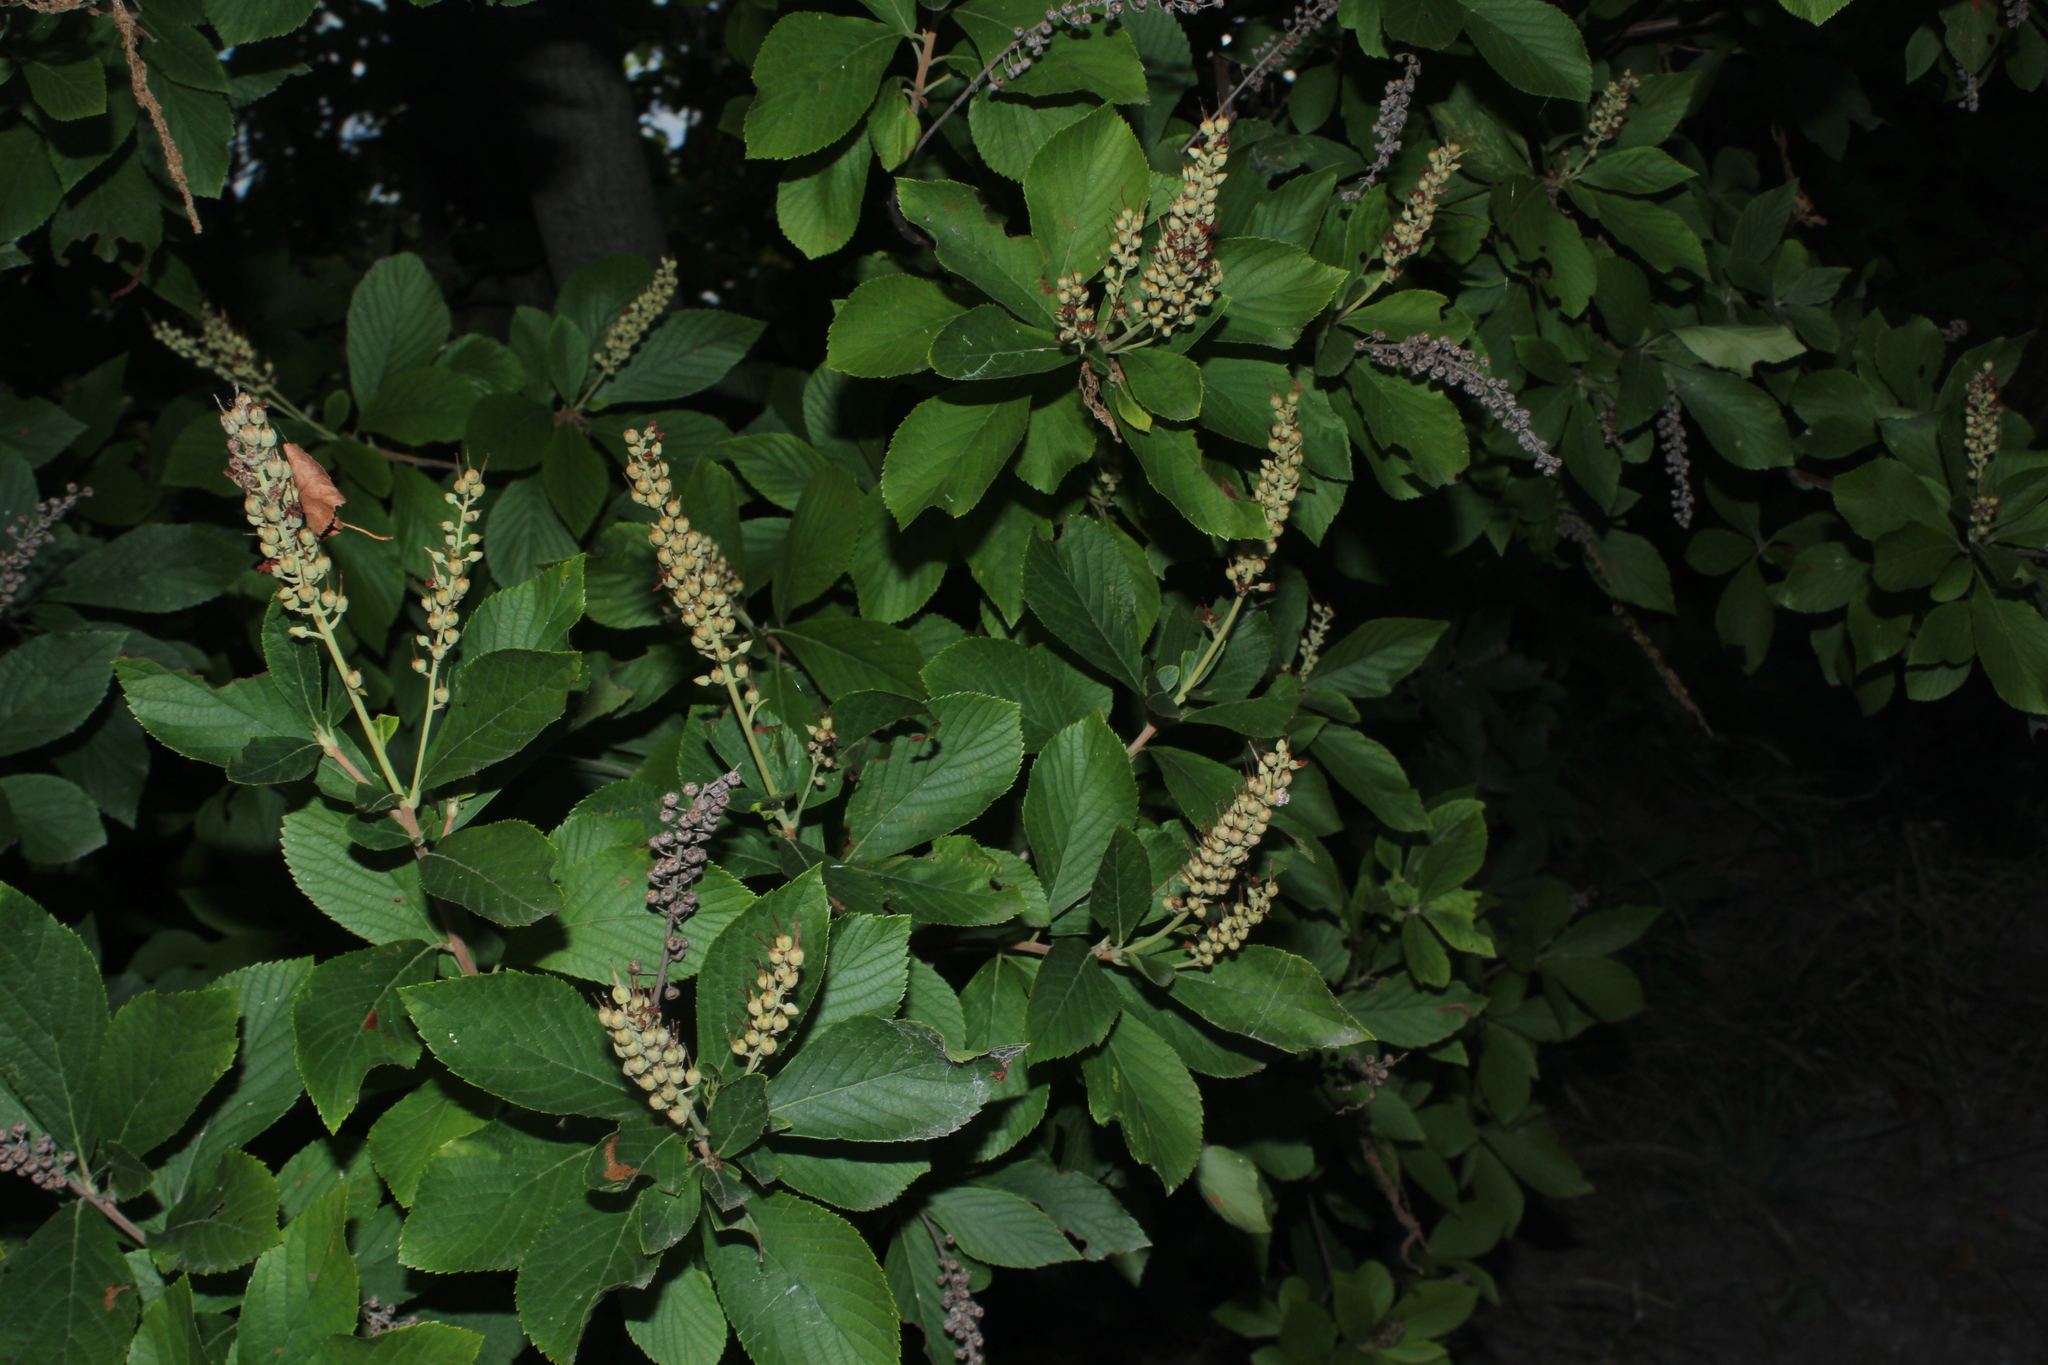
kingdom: Plantae
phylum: Tracheophyta
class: Magnoliopsida
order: Ericales
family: Clethraceae
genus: Clethra
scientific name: Clethra alnifolia
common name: Sweet pepperbush
